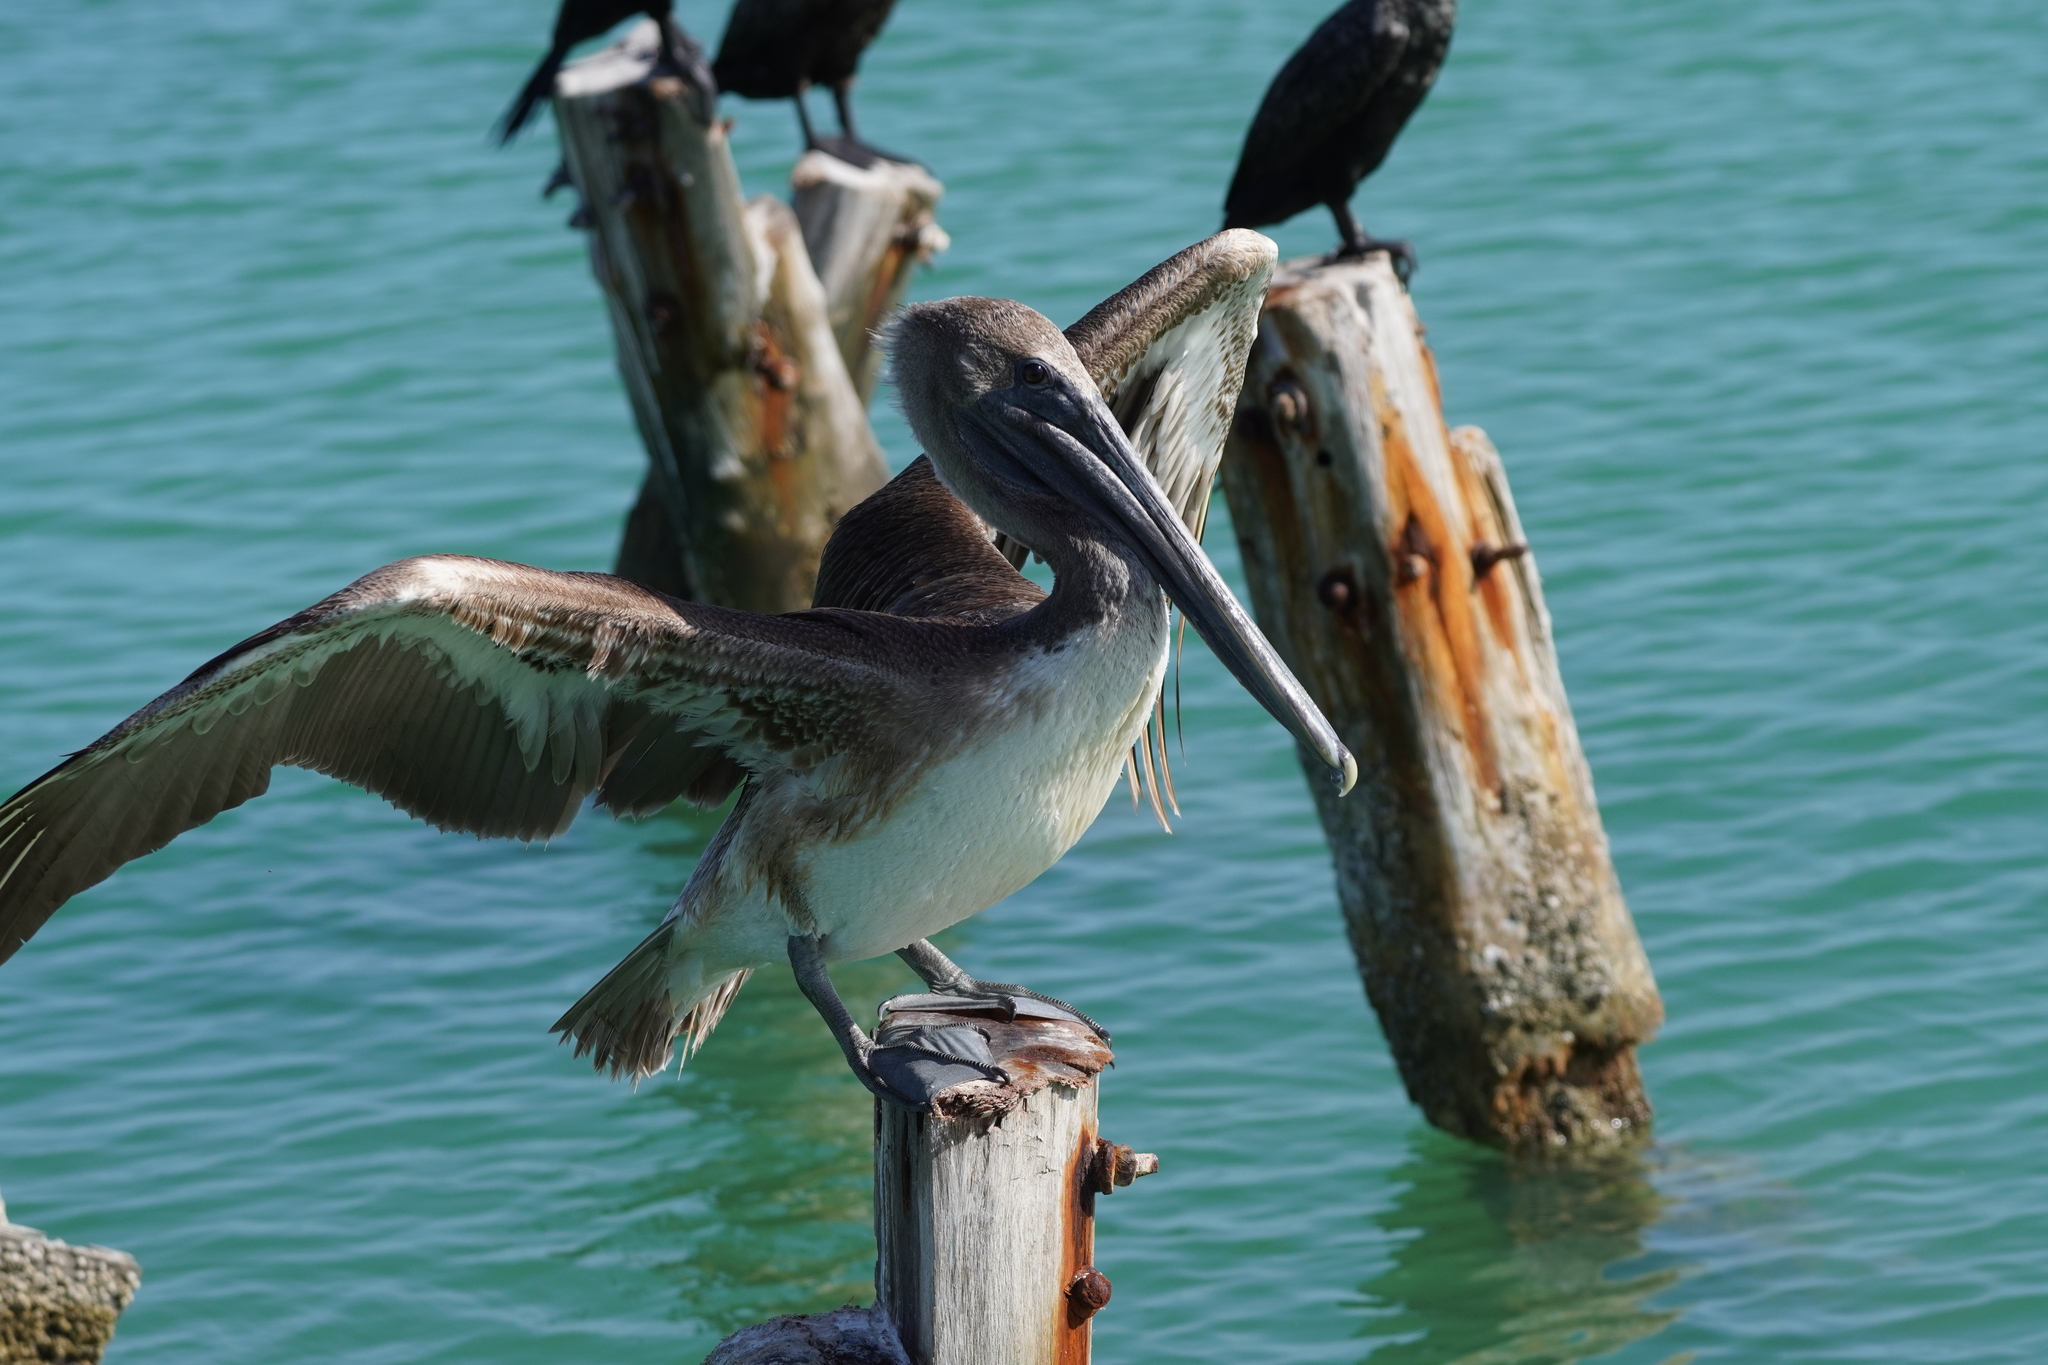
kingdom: Animalia
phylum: Chordata
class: Aves
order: Pelecaniformes
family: Pelecanidae
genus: Pelecanus
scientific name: Pelecanus occidentalis
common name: Brown pelican
